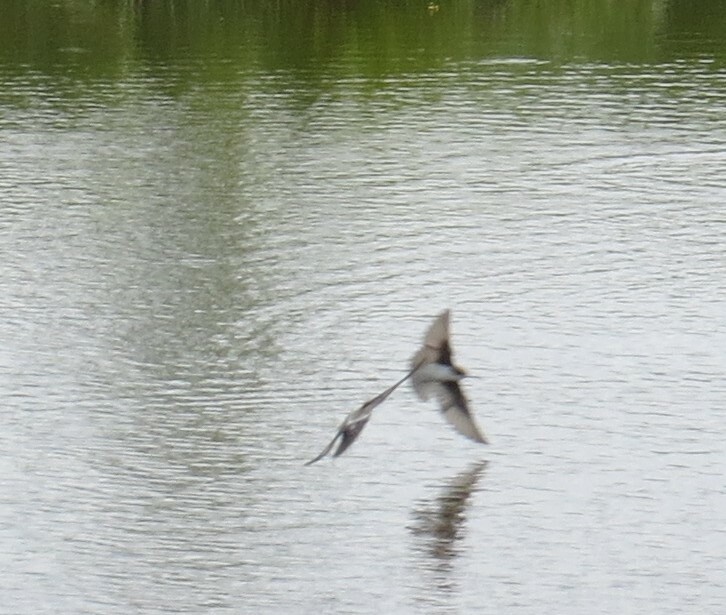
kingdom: Animalia
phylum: Chordata
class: Aves
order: Passeriformes
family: Hirundinidae
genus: Tachycineta
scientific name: Tachycineta bicolor
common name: Tree swallow
